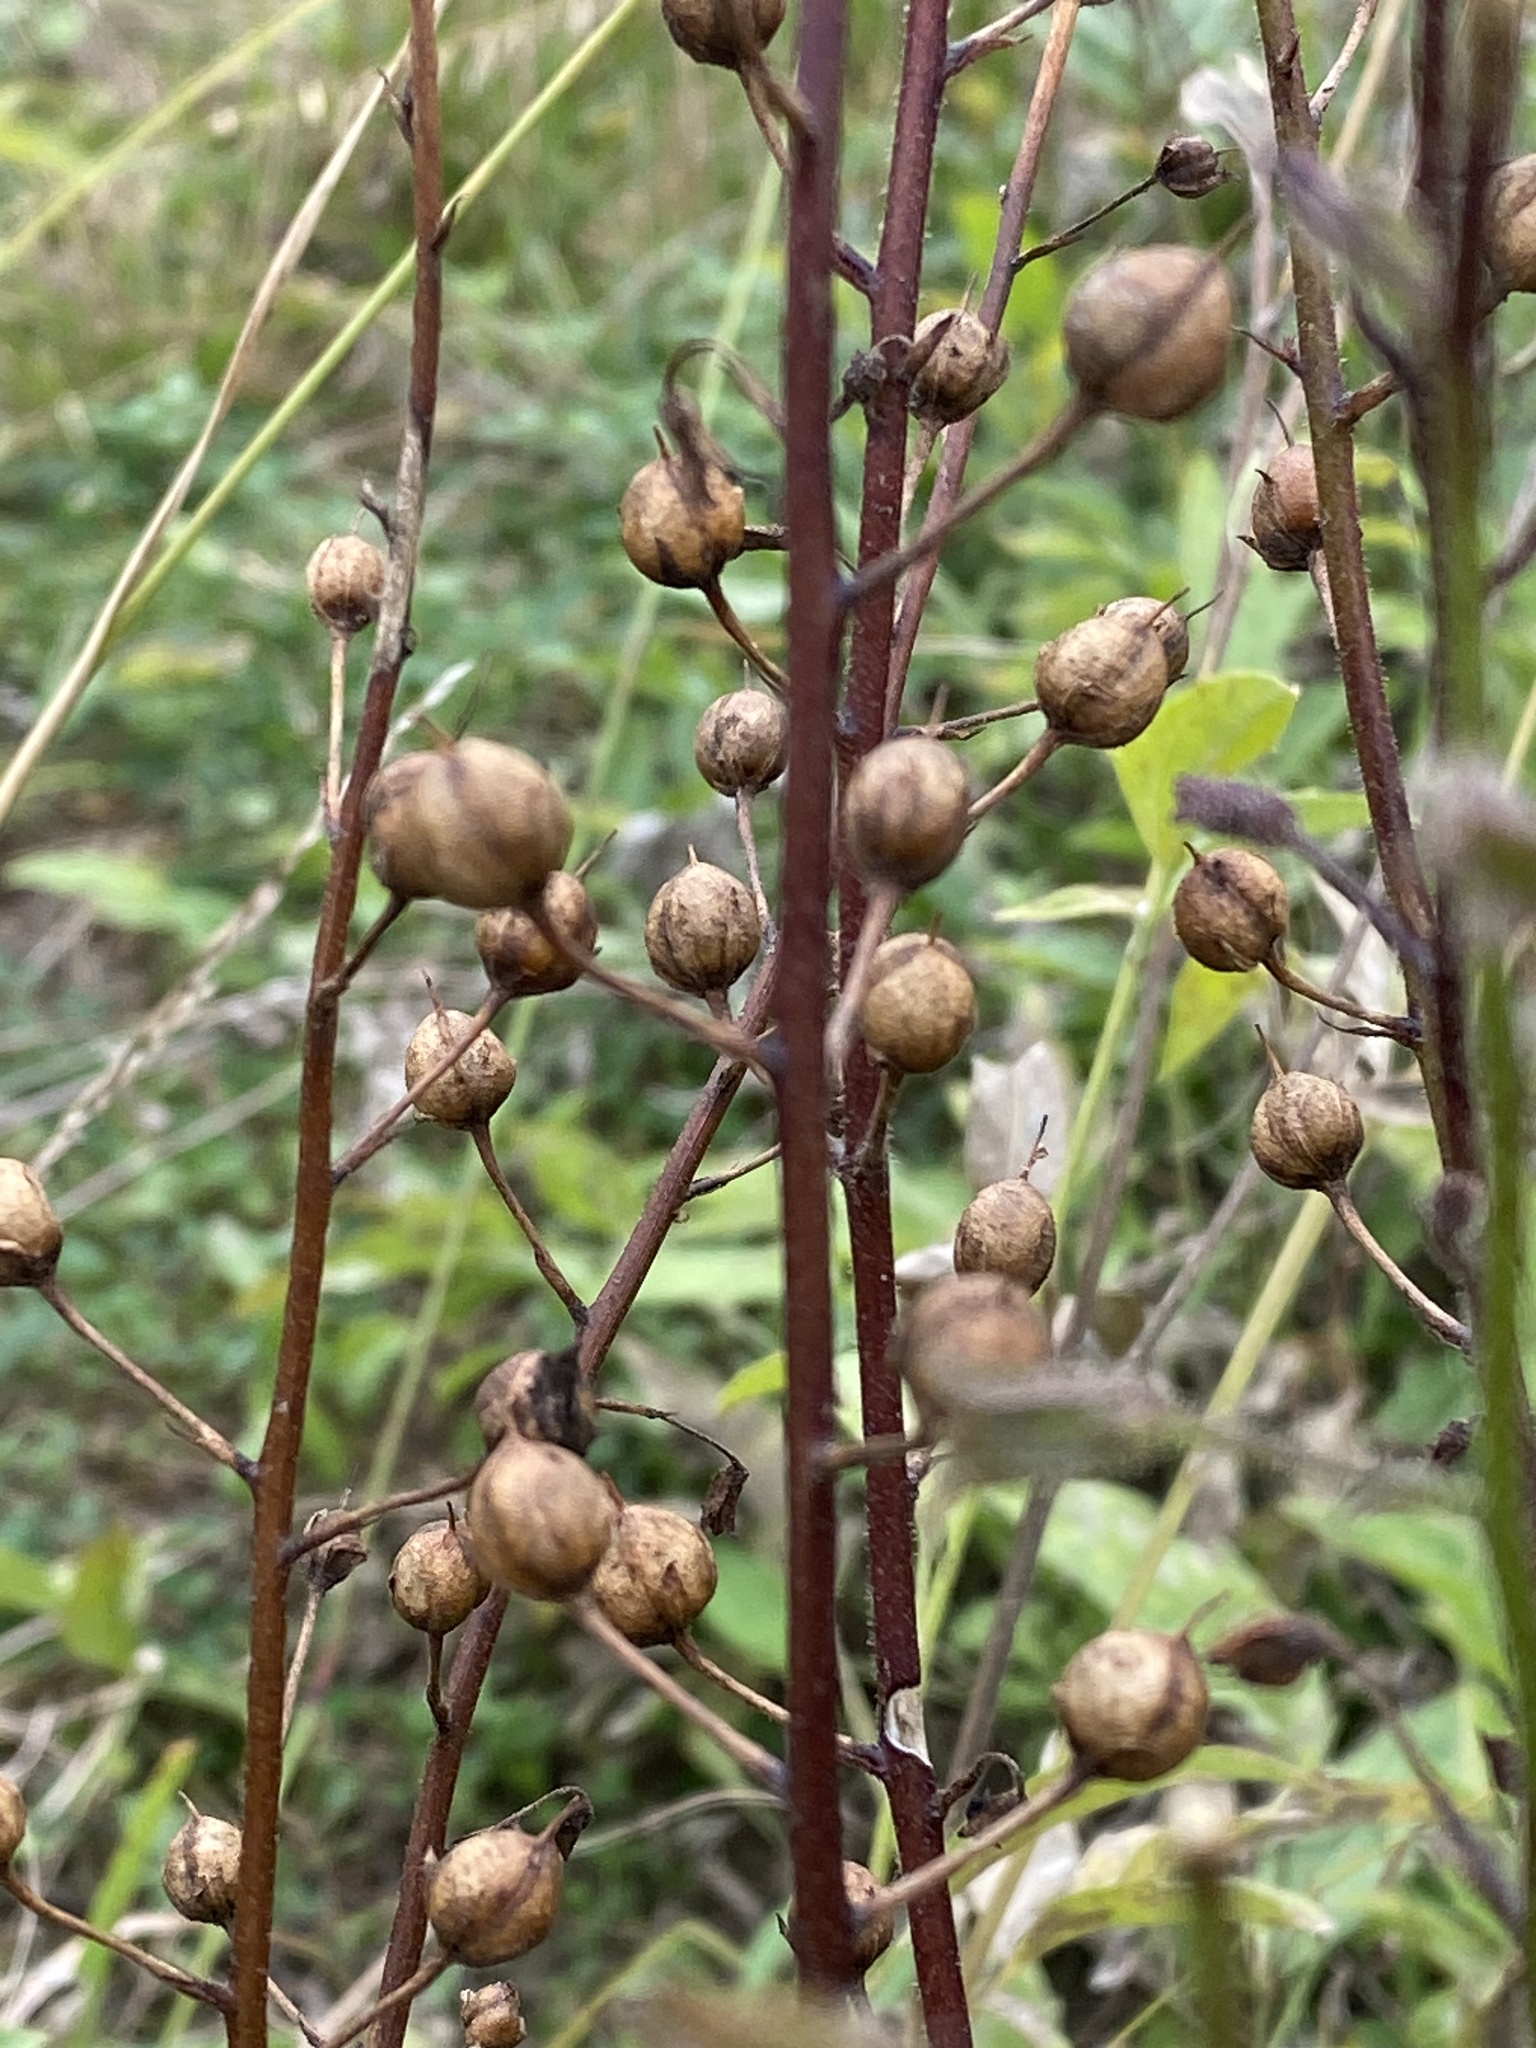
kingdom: Plantae
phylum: Tracheophyta
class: Magnoliopsida
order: Lamiales
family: Scrophulariaceae
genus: Verbascum
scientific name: Verbascum blattaria
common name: Moth mullein
